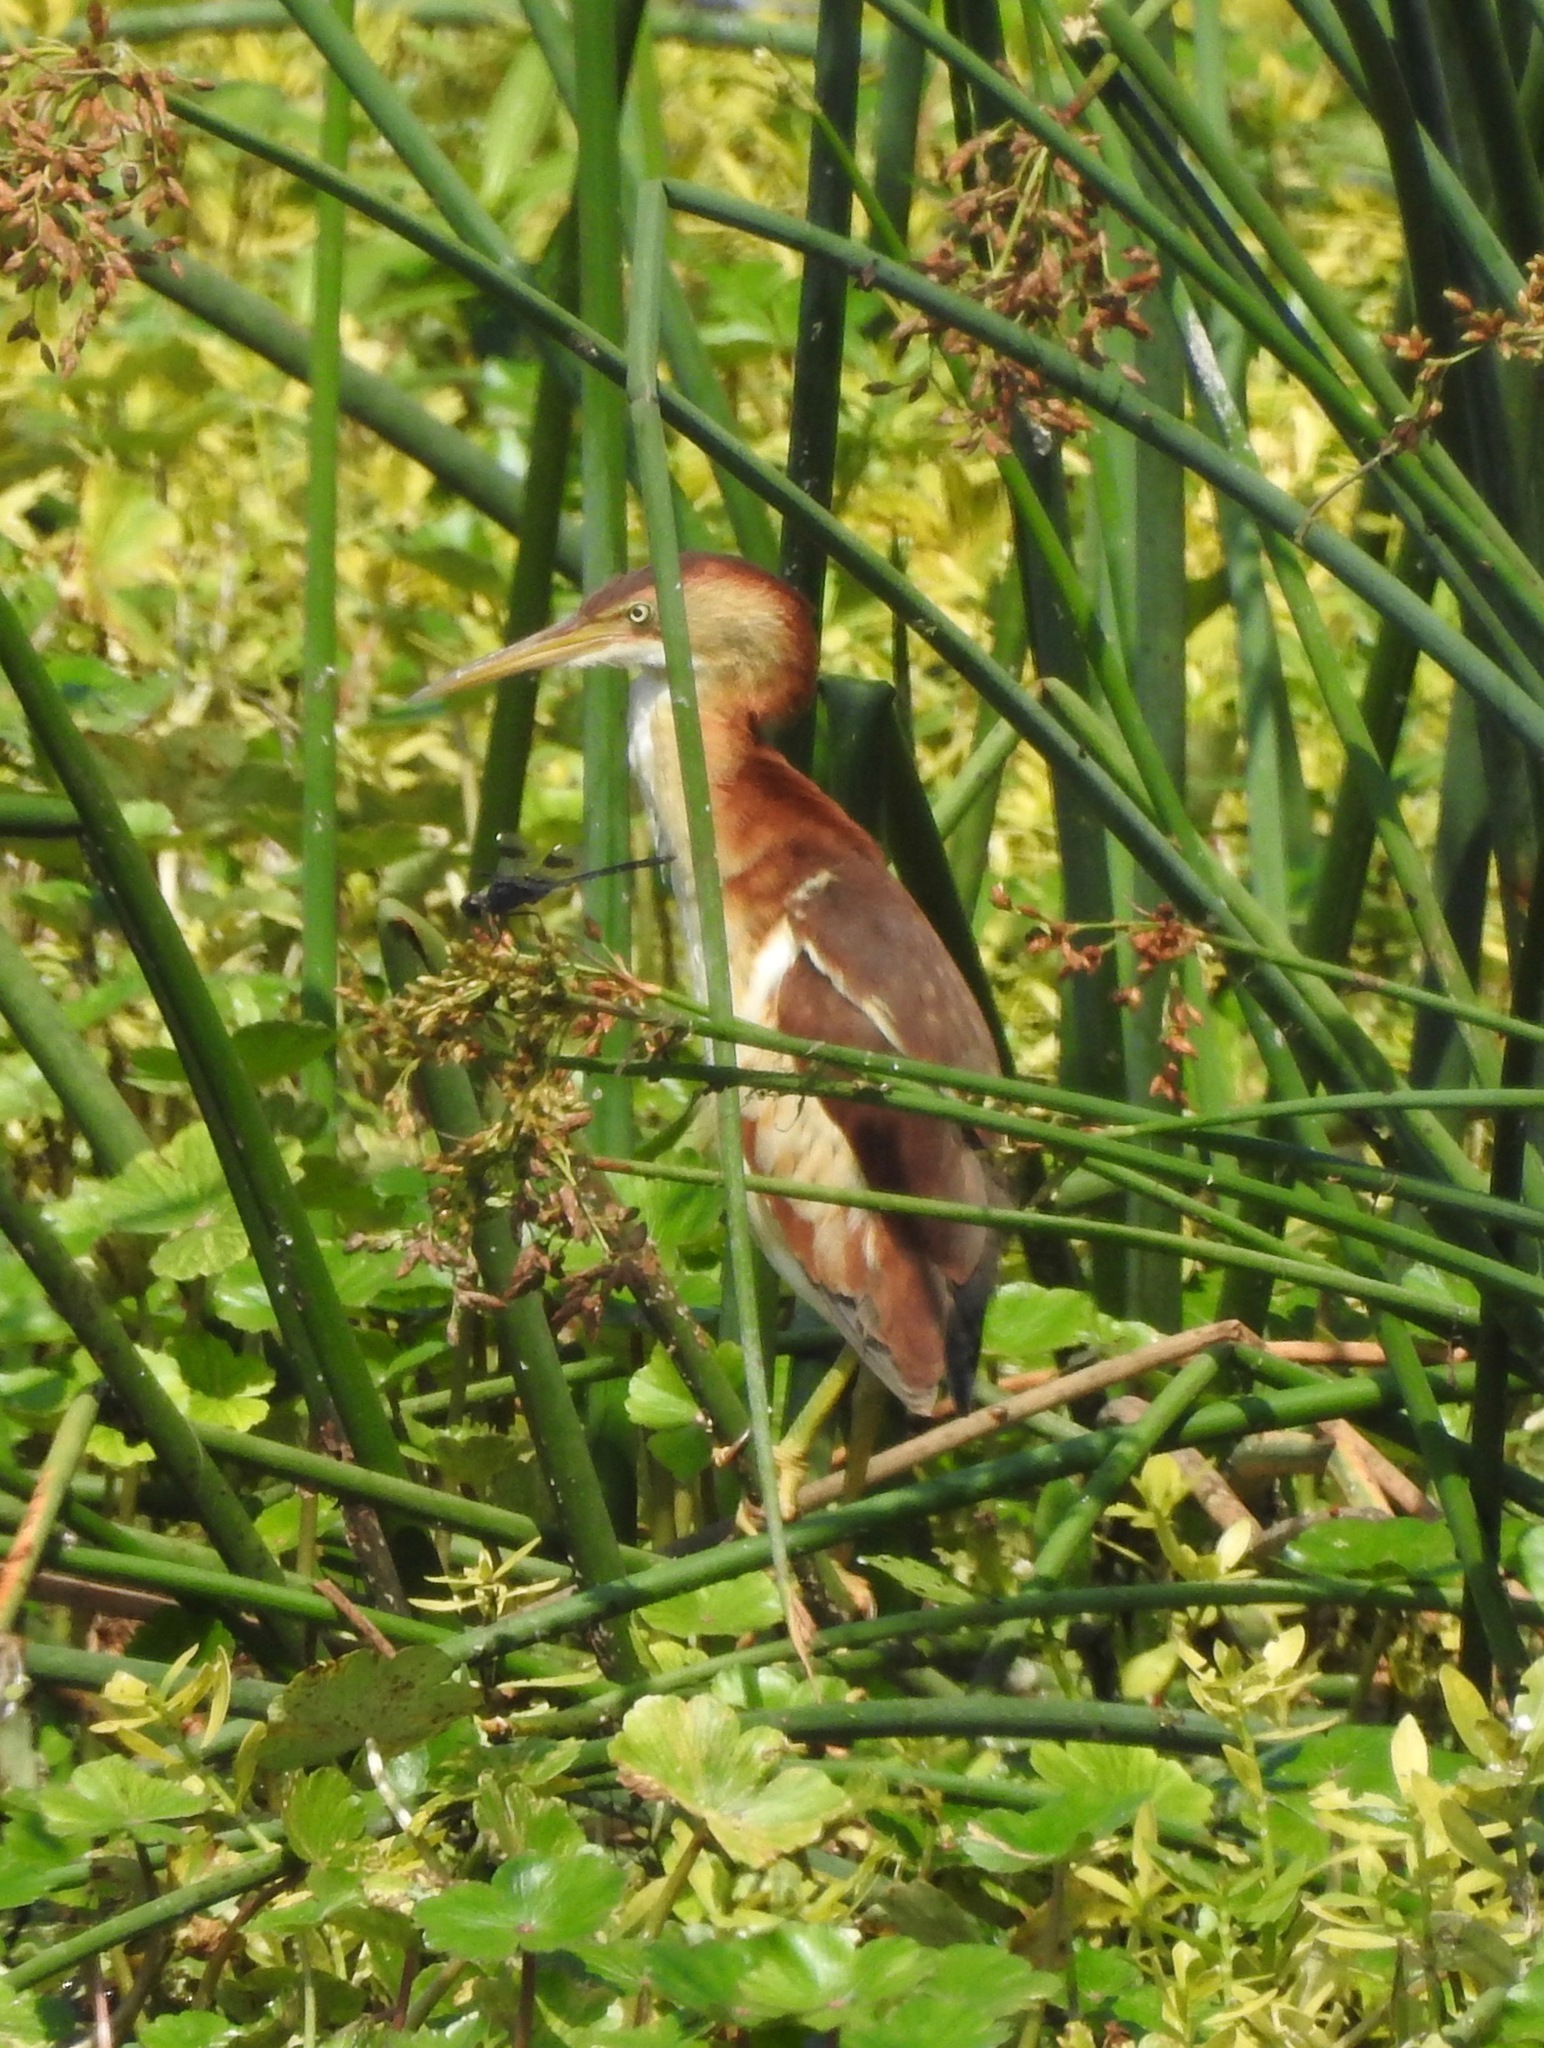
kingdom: Animalia
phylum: Chordata
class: Aves
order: Pelecaniformes
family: Ardeidae
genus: Ixobrychus
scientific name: Ixobrychus exilis
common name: Least bittern
